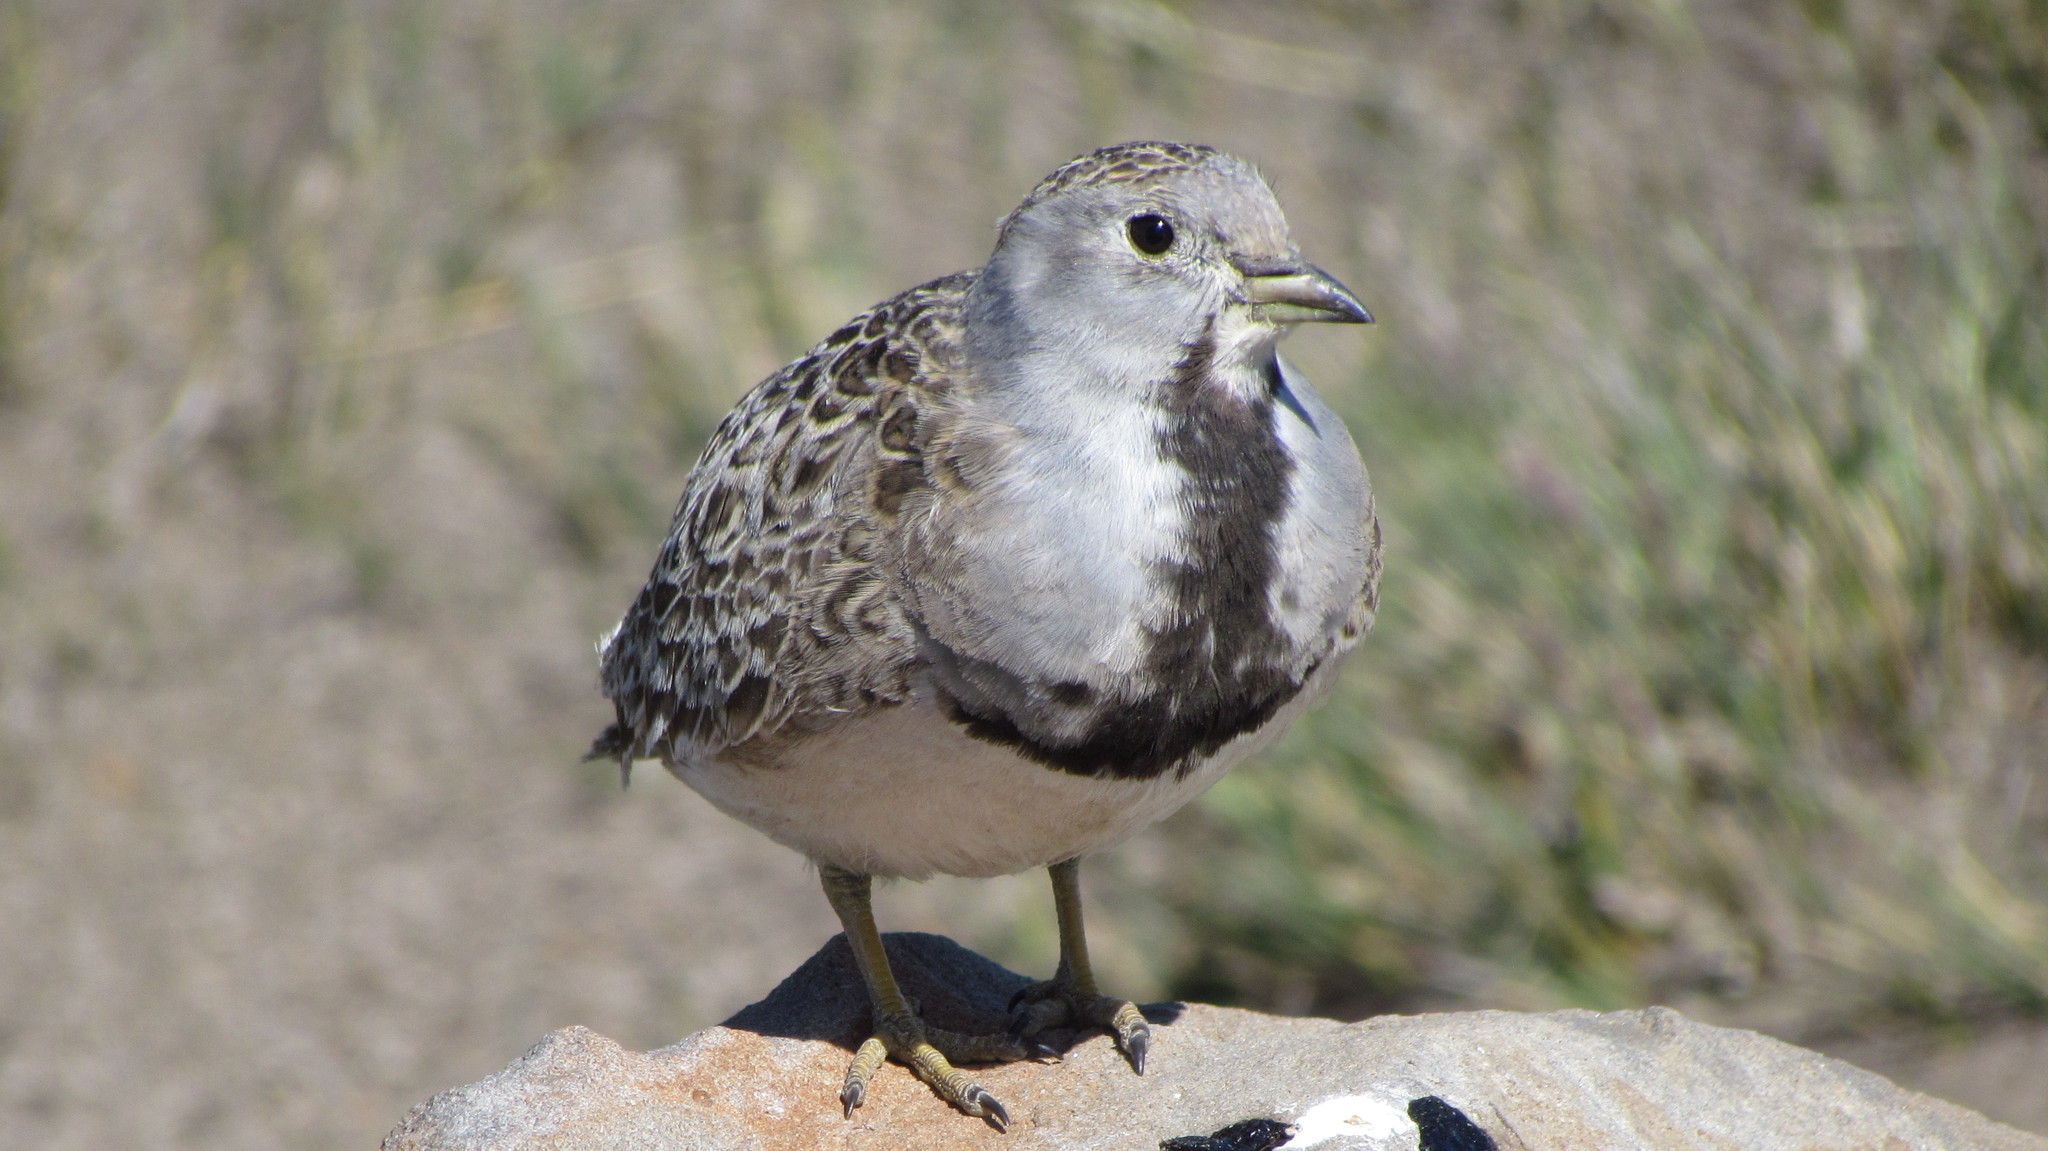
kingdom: Animalia
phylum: Chordata
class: Aves
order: Charadriiformes
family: Thinocoridae
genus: Thinocorus
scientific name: Thinocorus rumicivorus
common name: Least seedsnipe
